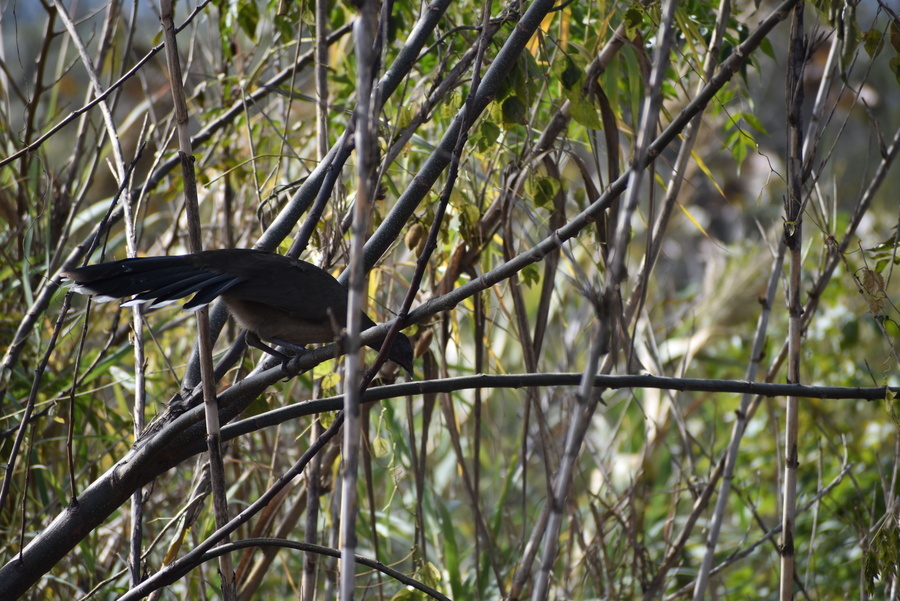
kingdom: Animalia
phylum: Chordata
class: Aves
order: Galliformes
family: Cracidae
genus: Ortalis
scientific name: Ortalis vetula
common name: Plain chachalaca
